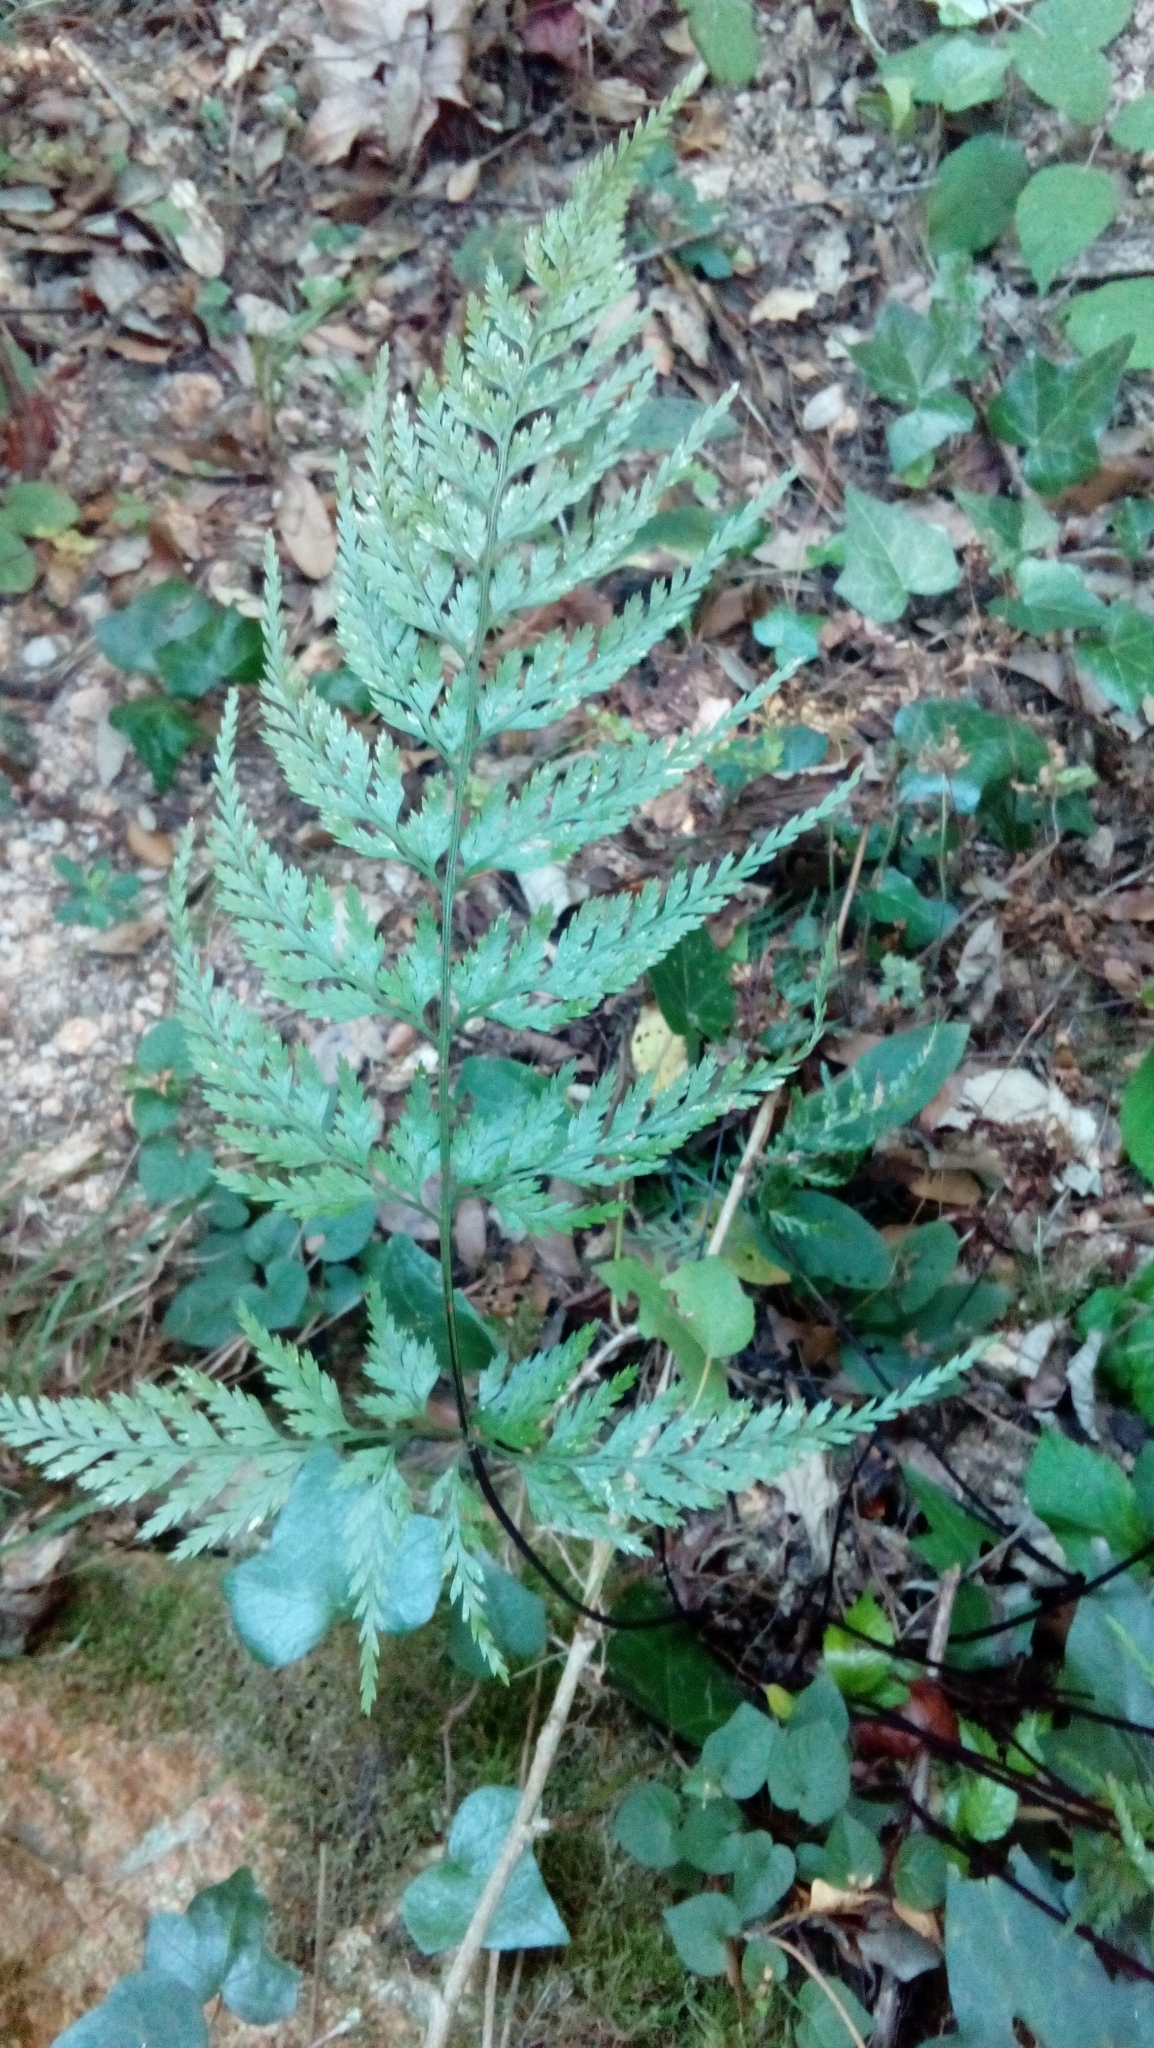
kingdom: Plantae
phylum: Tracheophyta
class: Polypodiopsida
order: Polypodiales
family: Aspleniaceae
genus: Asplenium
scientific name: Asplenium onopteris
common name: Irish spleenwort
